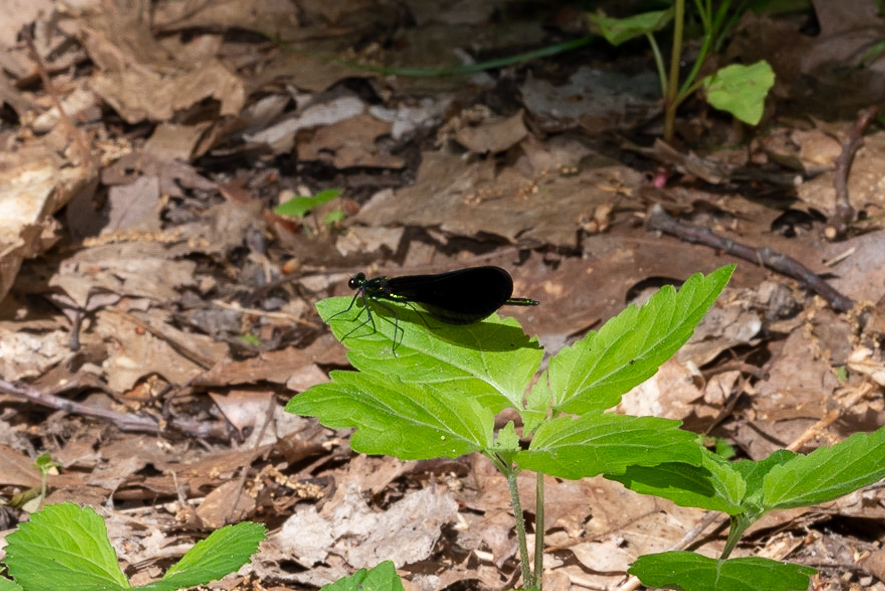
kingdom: Animalia
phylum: Arthropoda
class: Insecta
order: Odonata
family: Calopterygidae
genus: Calopteryx
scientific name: Calopteryx maculata
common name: Ebony jewelwing
